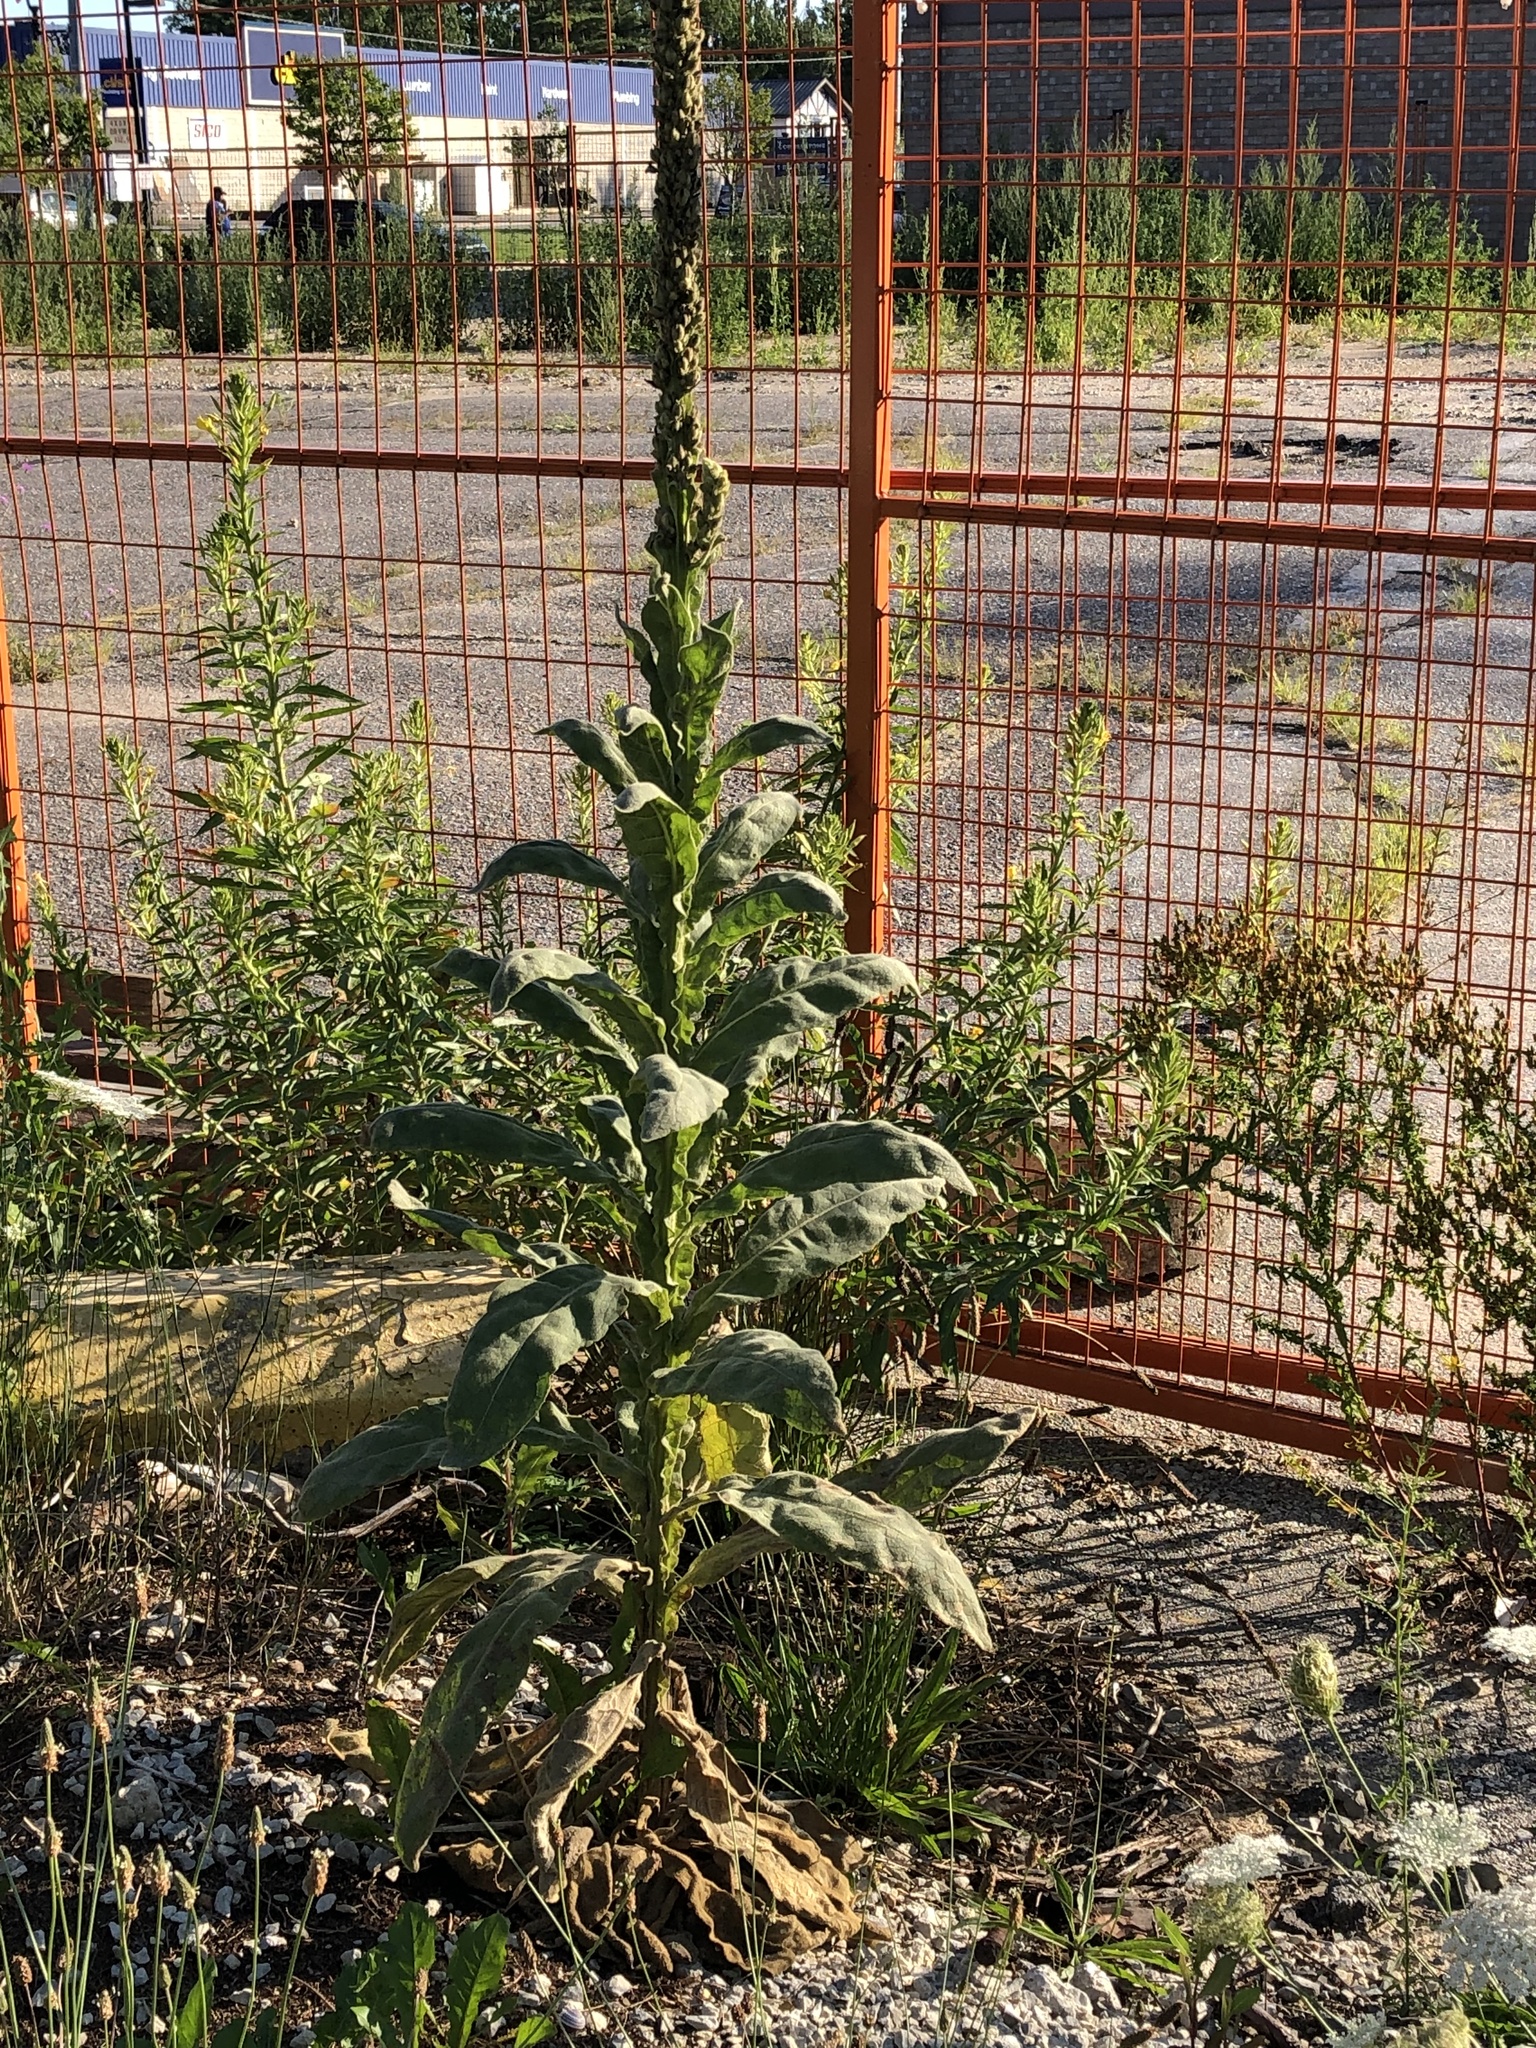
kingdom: Plantae
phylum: Tracheophyta
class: Magnoliopsida
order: Lamiales
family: Scrophulariaceae
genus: Verbascum
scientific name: Verbascum thapsus
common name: Common mullein
